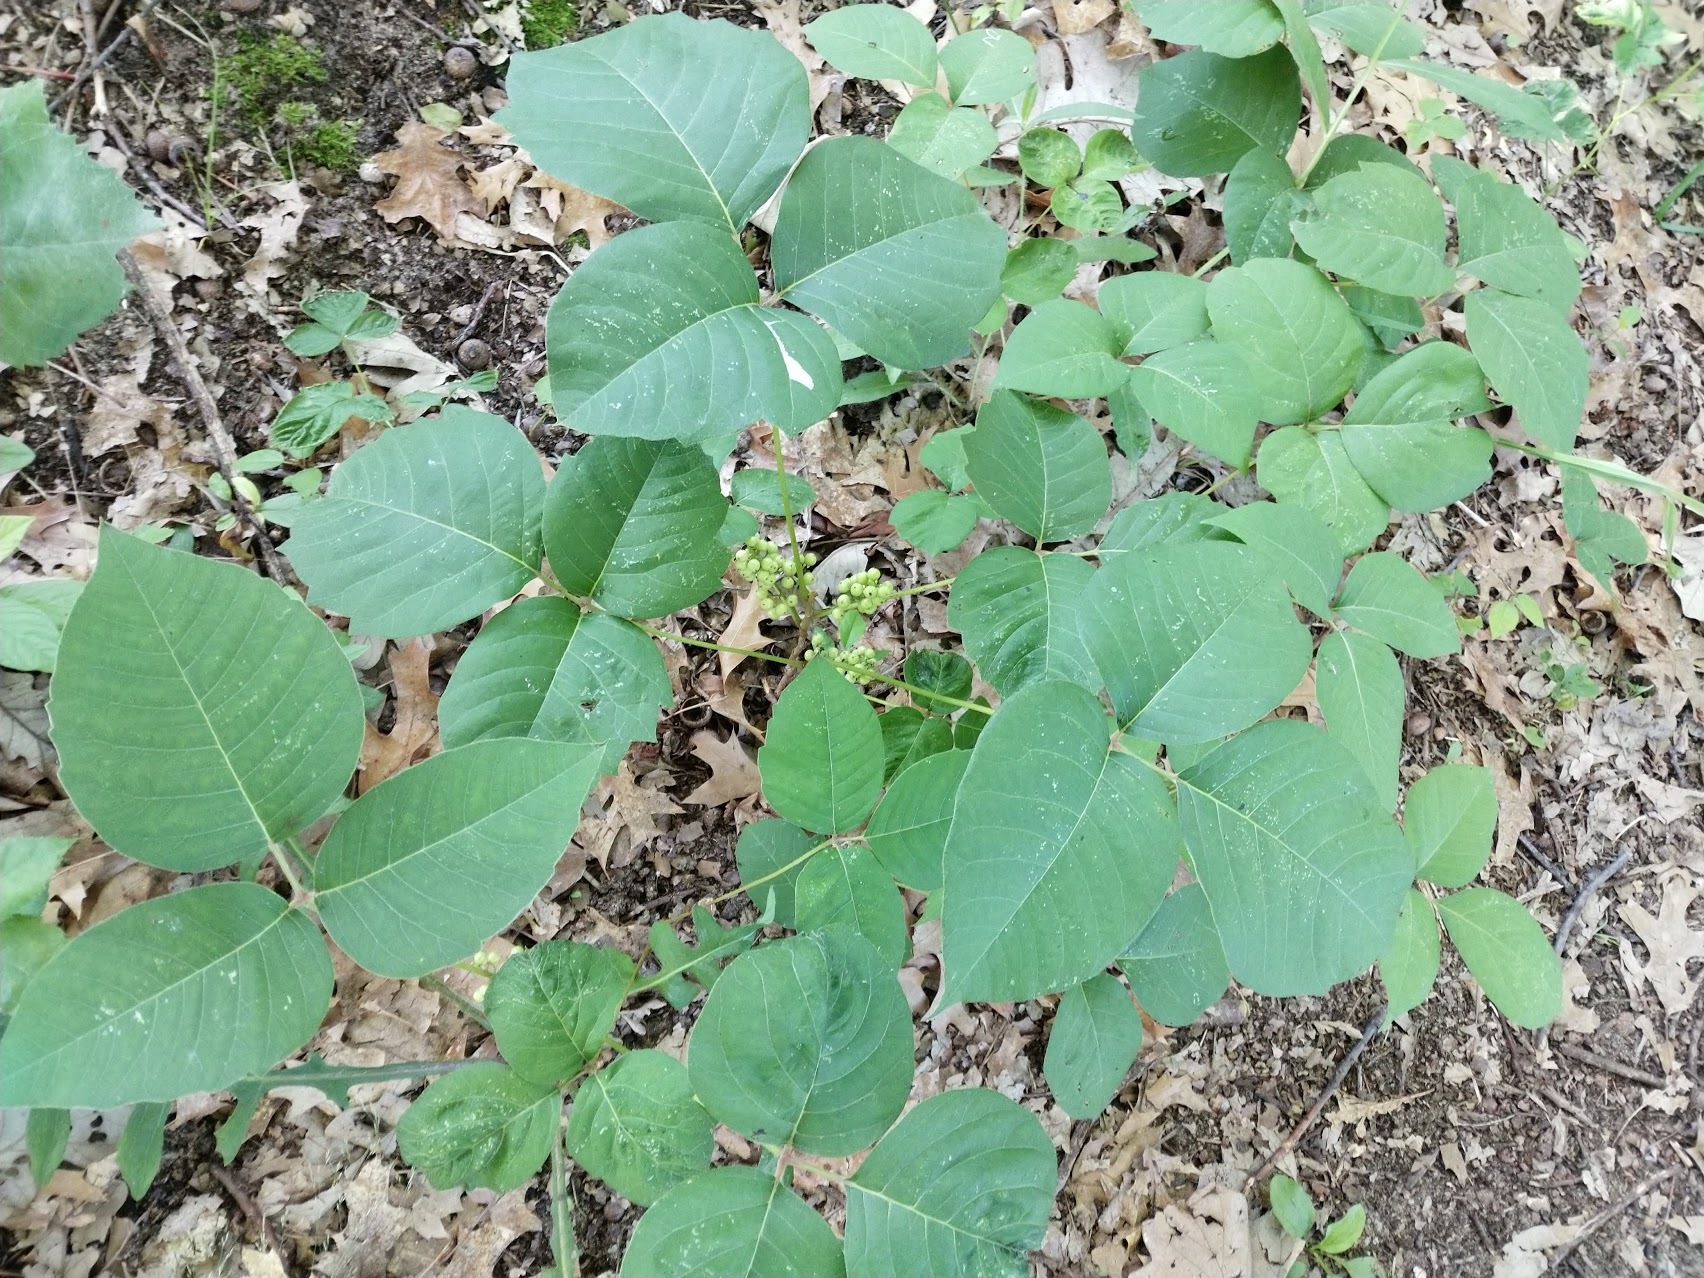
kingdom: Plantae
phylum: Tracheophyta
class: Magnoliopsida
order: Sapindales
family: Anacardiaceae
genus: Toxicodendron
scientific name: Toxicodendron rydbergii
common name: Rydberg's poison-ivy
